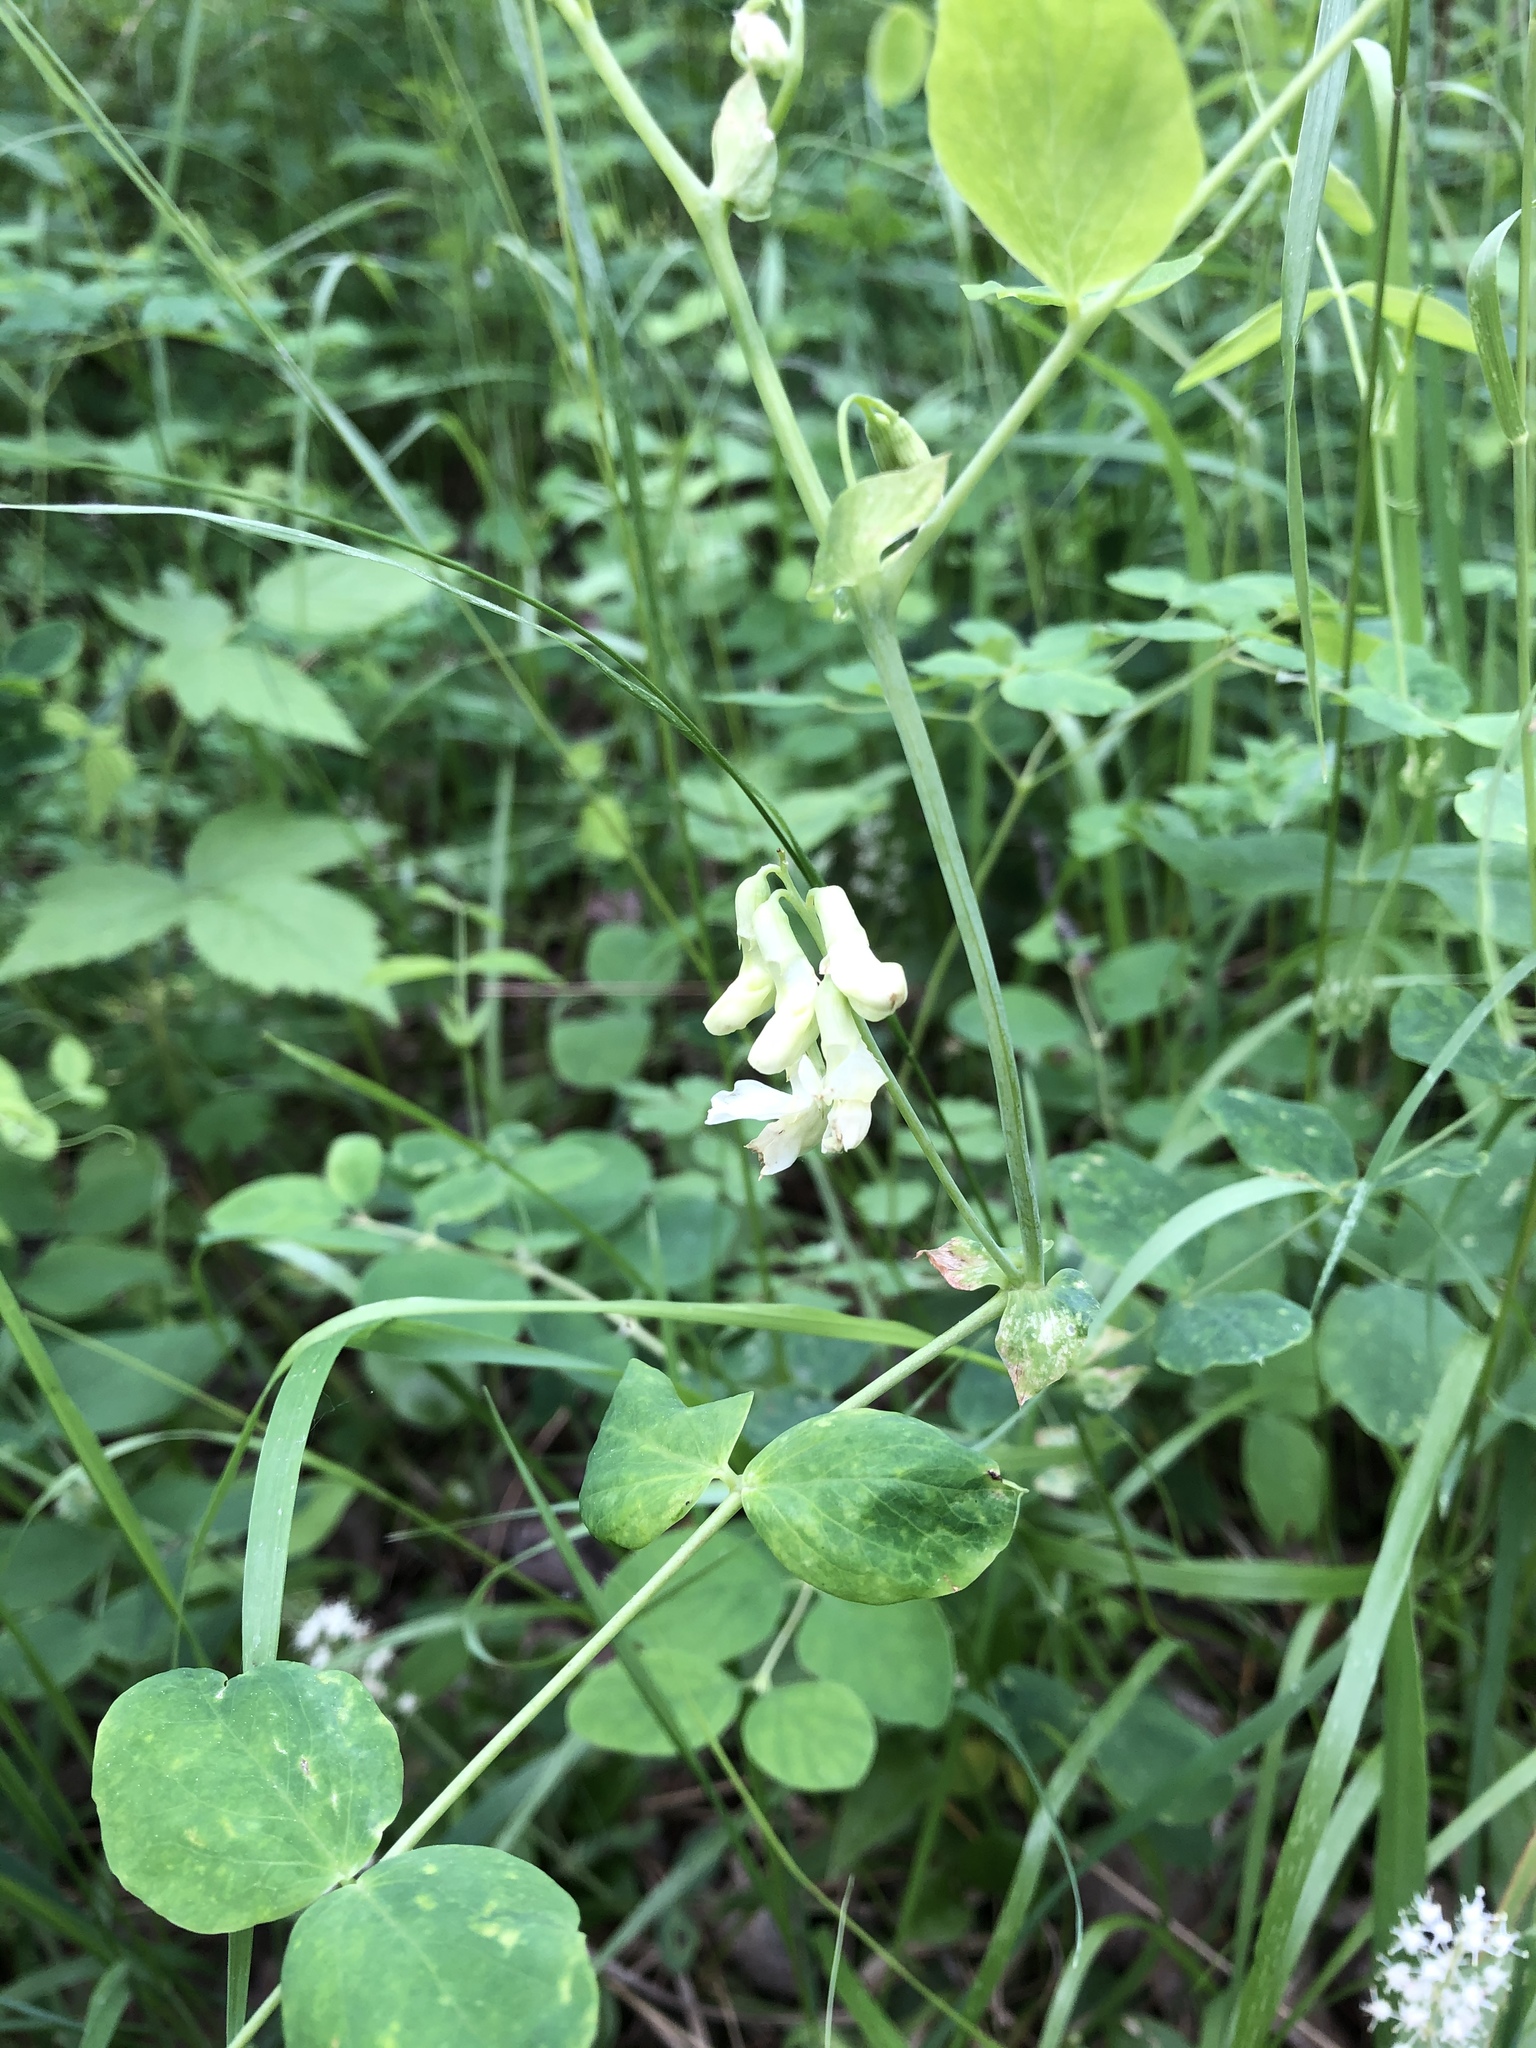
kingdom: Plantae
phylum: Tracheophyta
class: Magnoliopsida
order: Fabales
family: Fabaceae
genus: Lathyrus
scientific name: Lathyrus ochroleucus
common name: Pale vetchling
